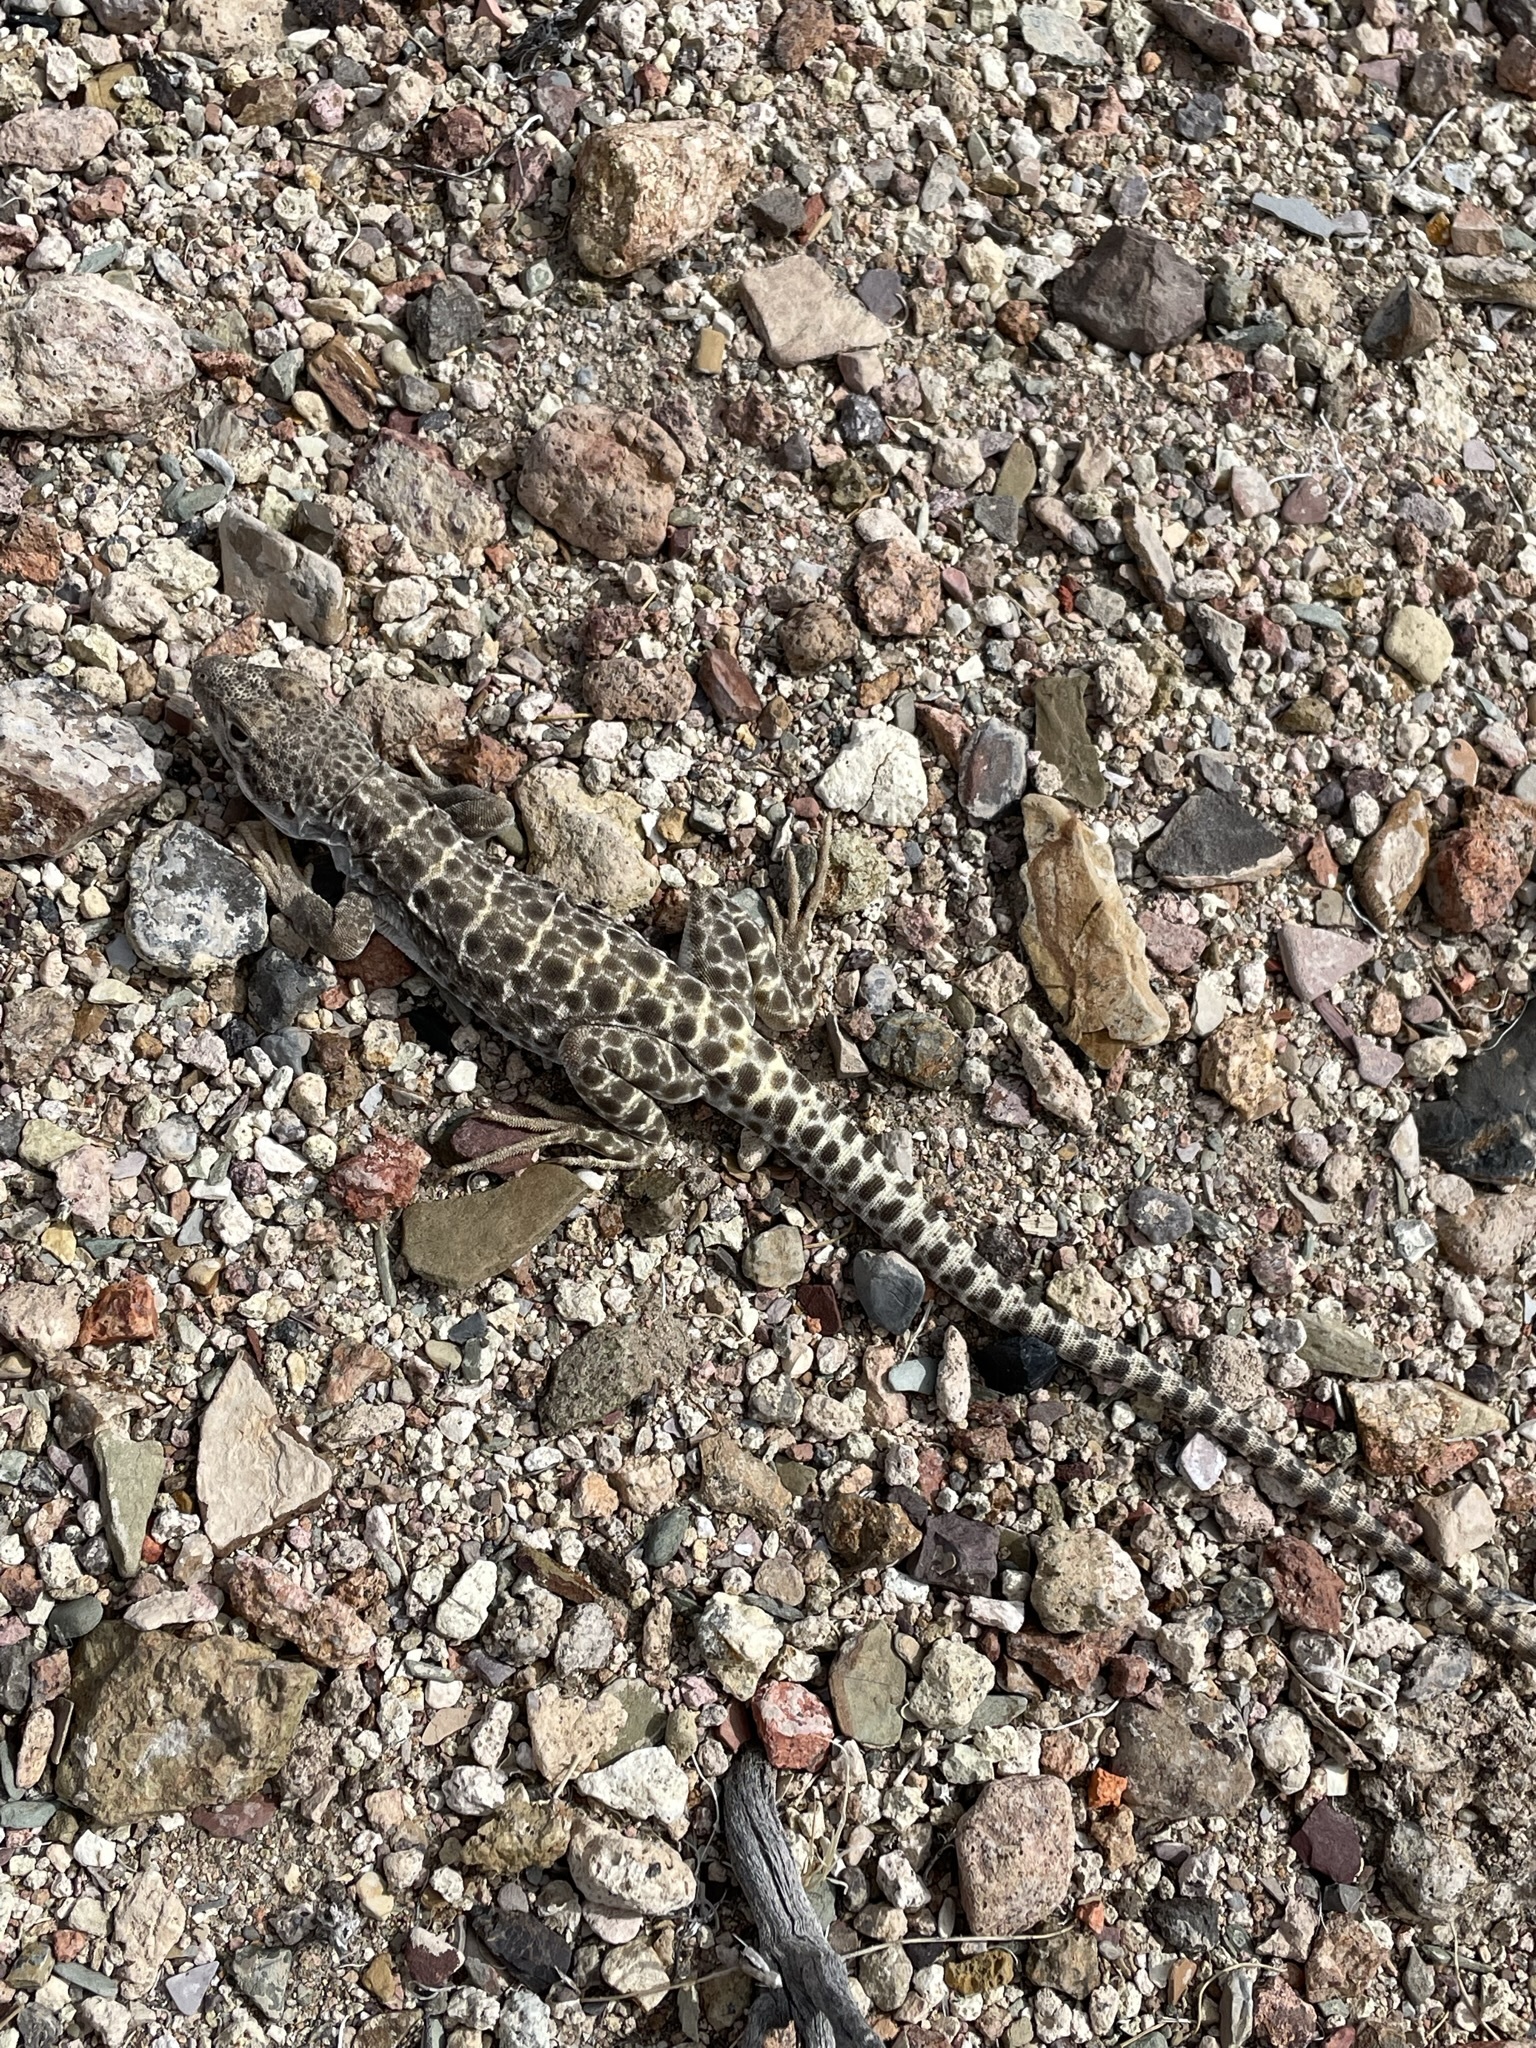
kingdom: Animalia
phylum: Chordata
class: Squamata
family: Crotaphytidae
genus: Gambelia
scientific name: Gambelia wislizenii
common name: Longnose leopard lizard
